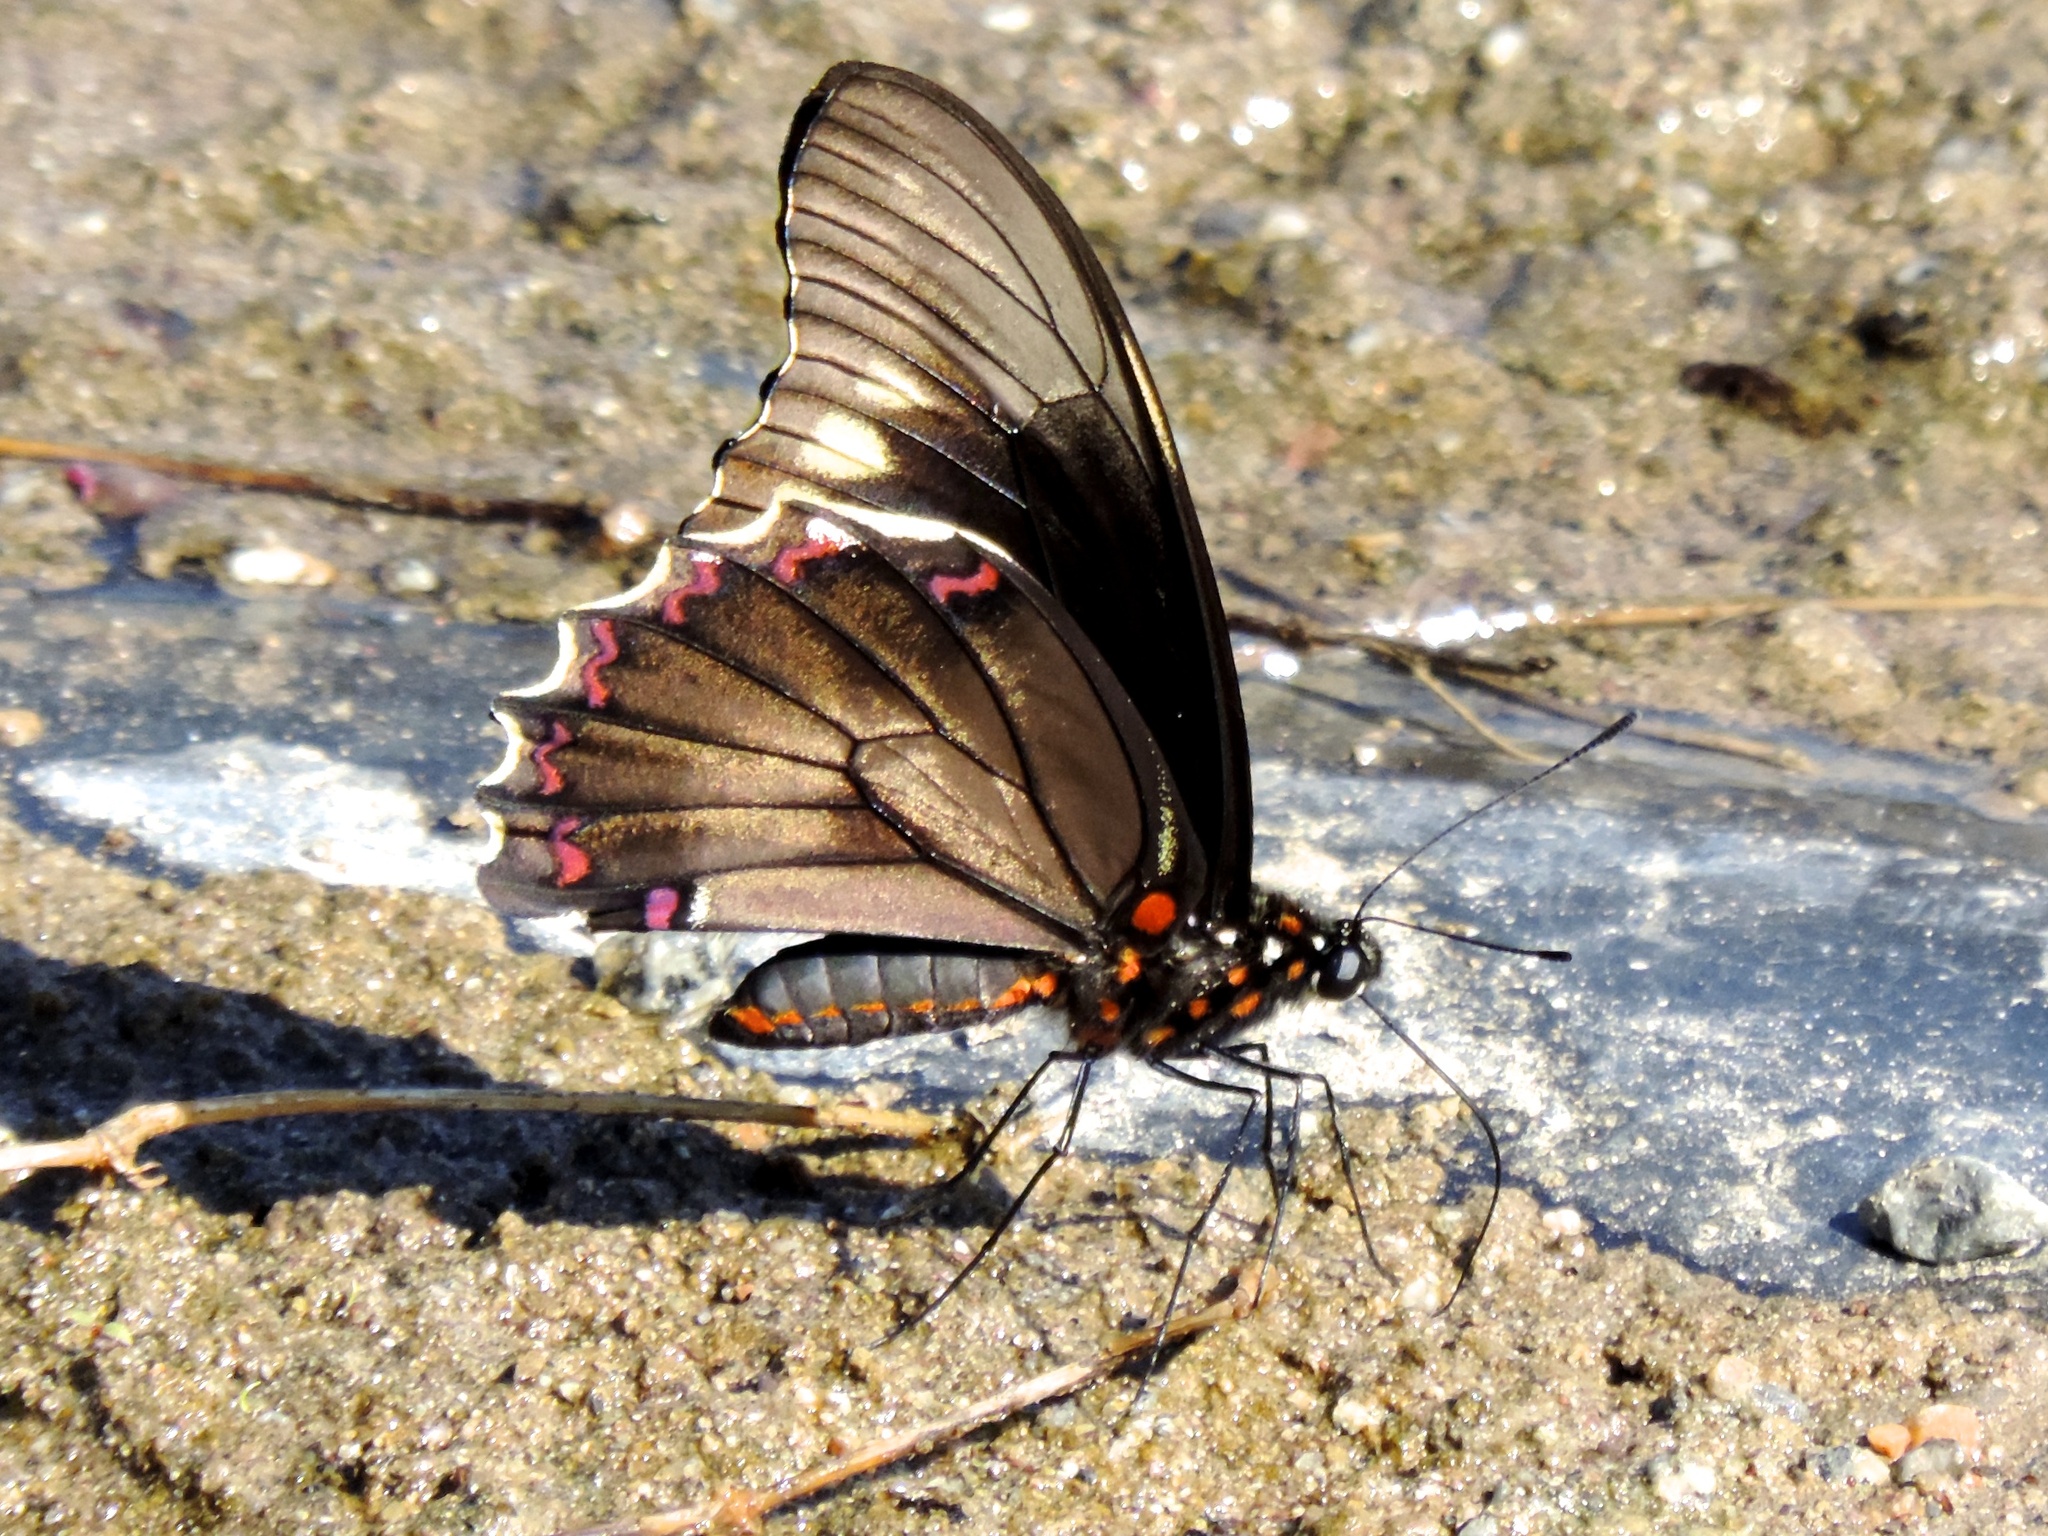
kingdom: Animalia
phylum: Arthropoda
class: Insecta
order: Lepidoptera
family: Papilionidae
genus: Battus
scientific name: Battus polydamas
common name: Polydamas swallowtail
